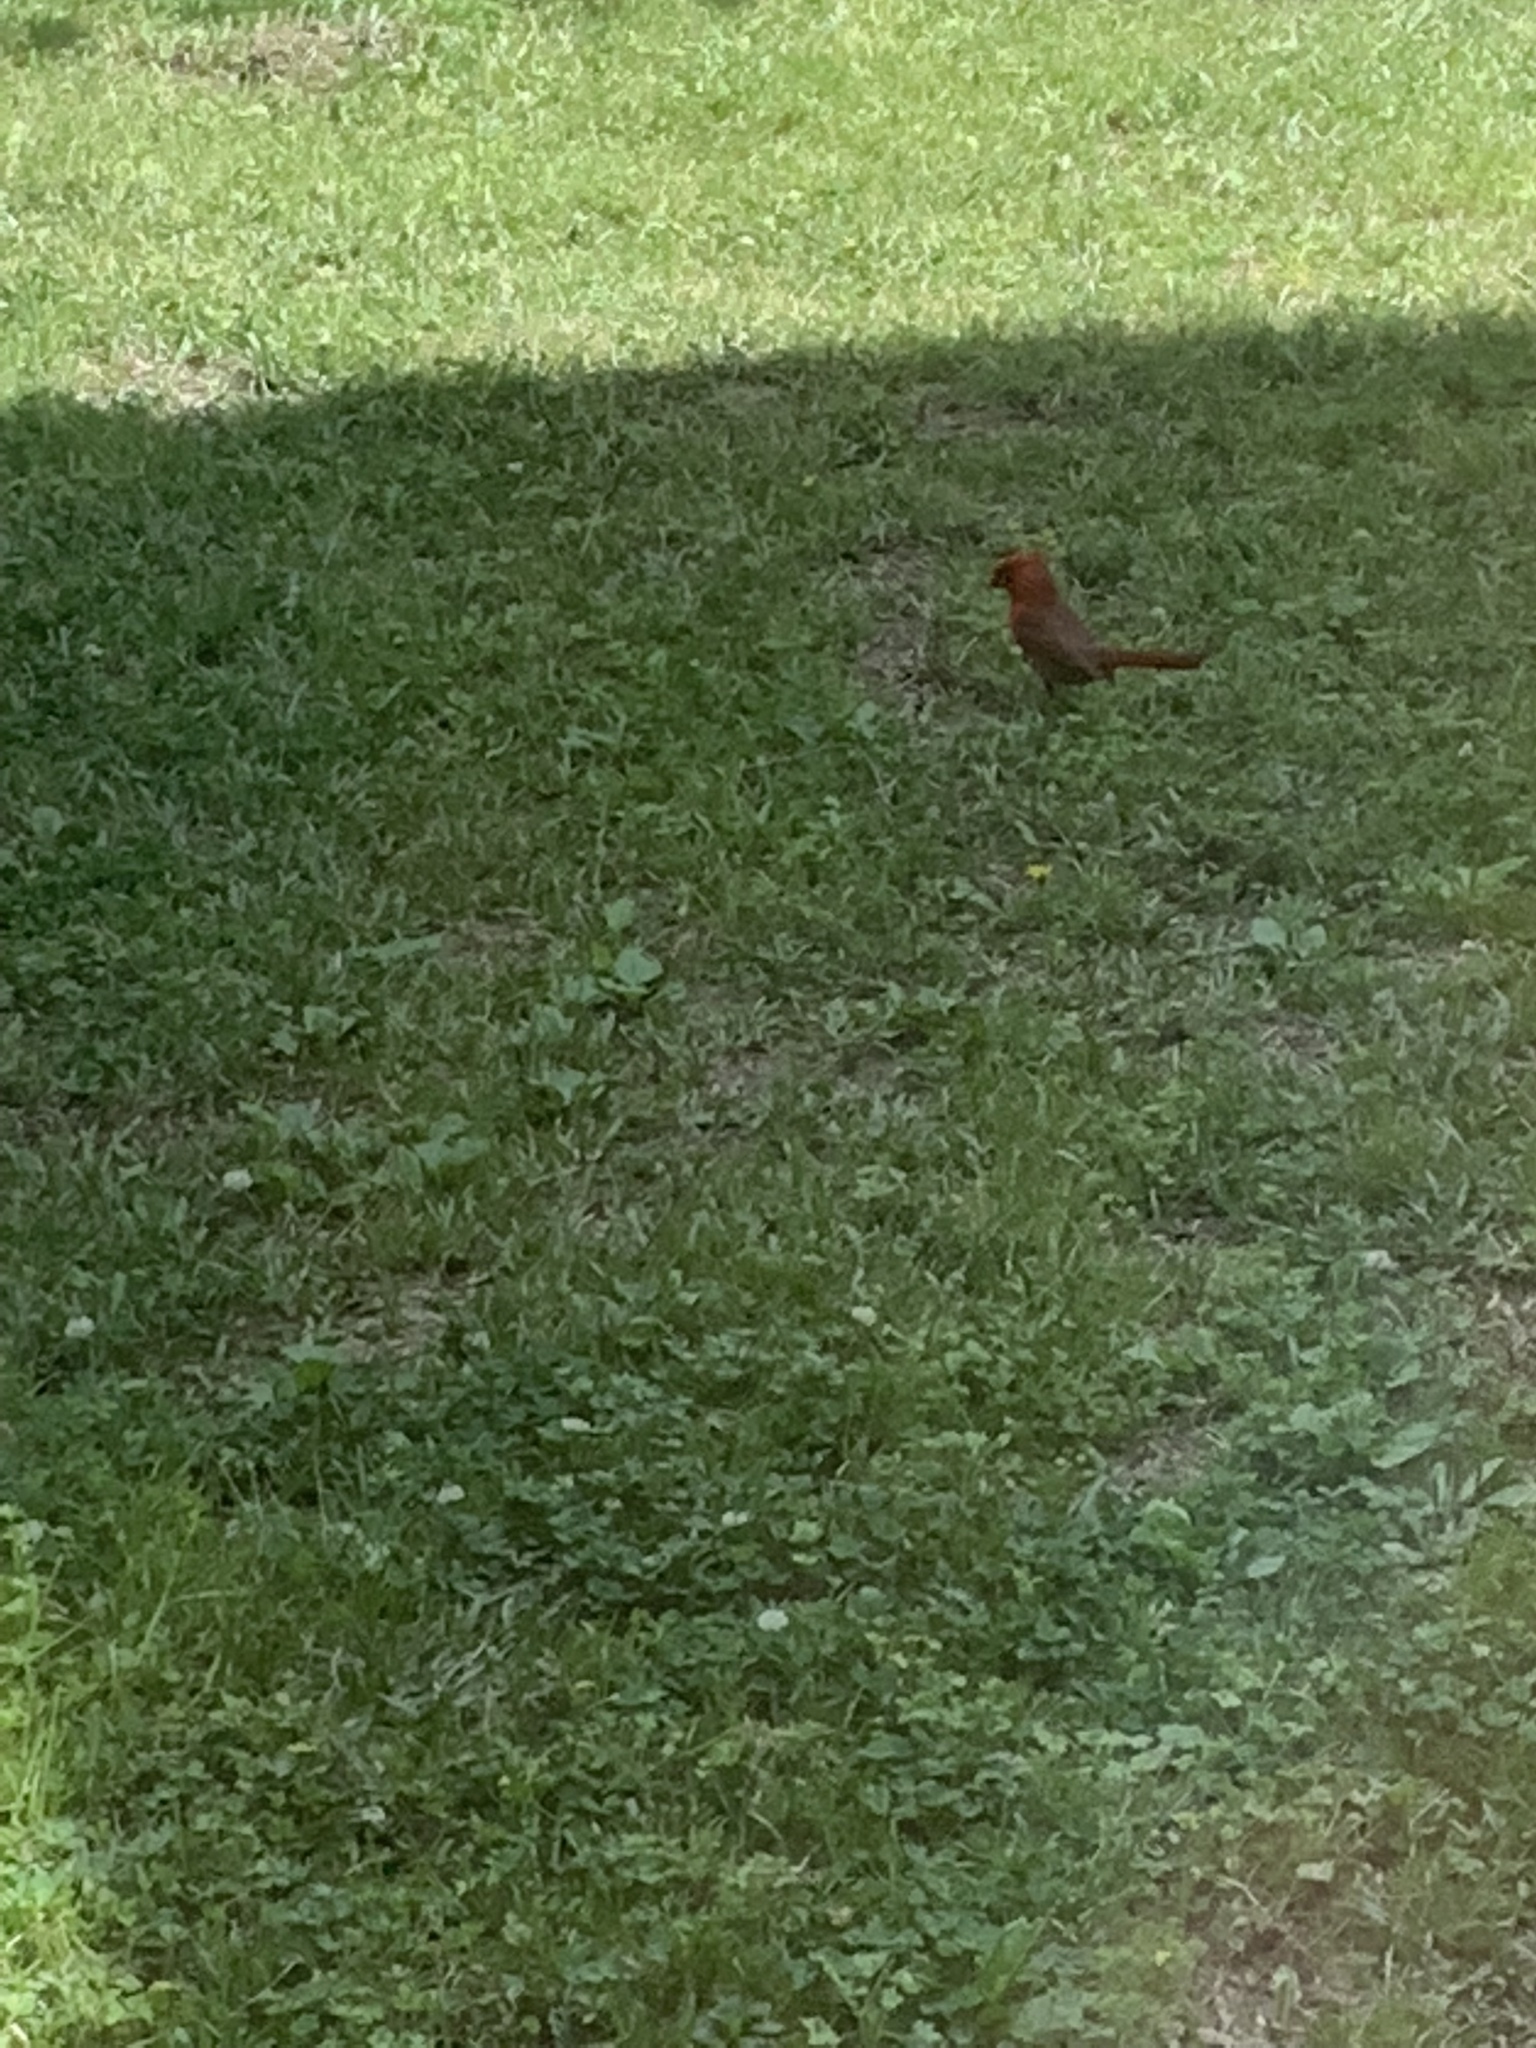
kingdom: Animalia
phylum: Chordata
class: Aves
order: Passeriformes
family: Cardinalidae
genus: Cardinalis
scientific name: Cardinalis cardinalis
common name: Northern cardinal
